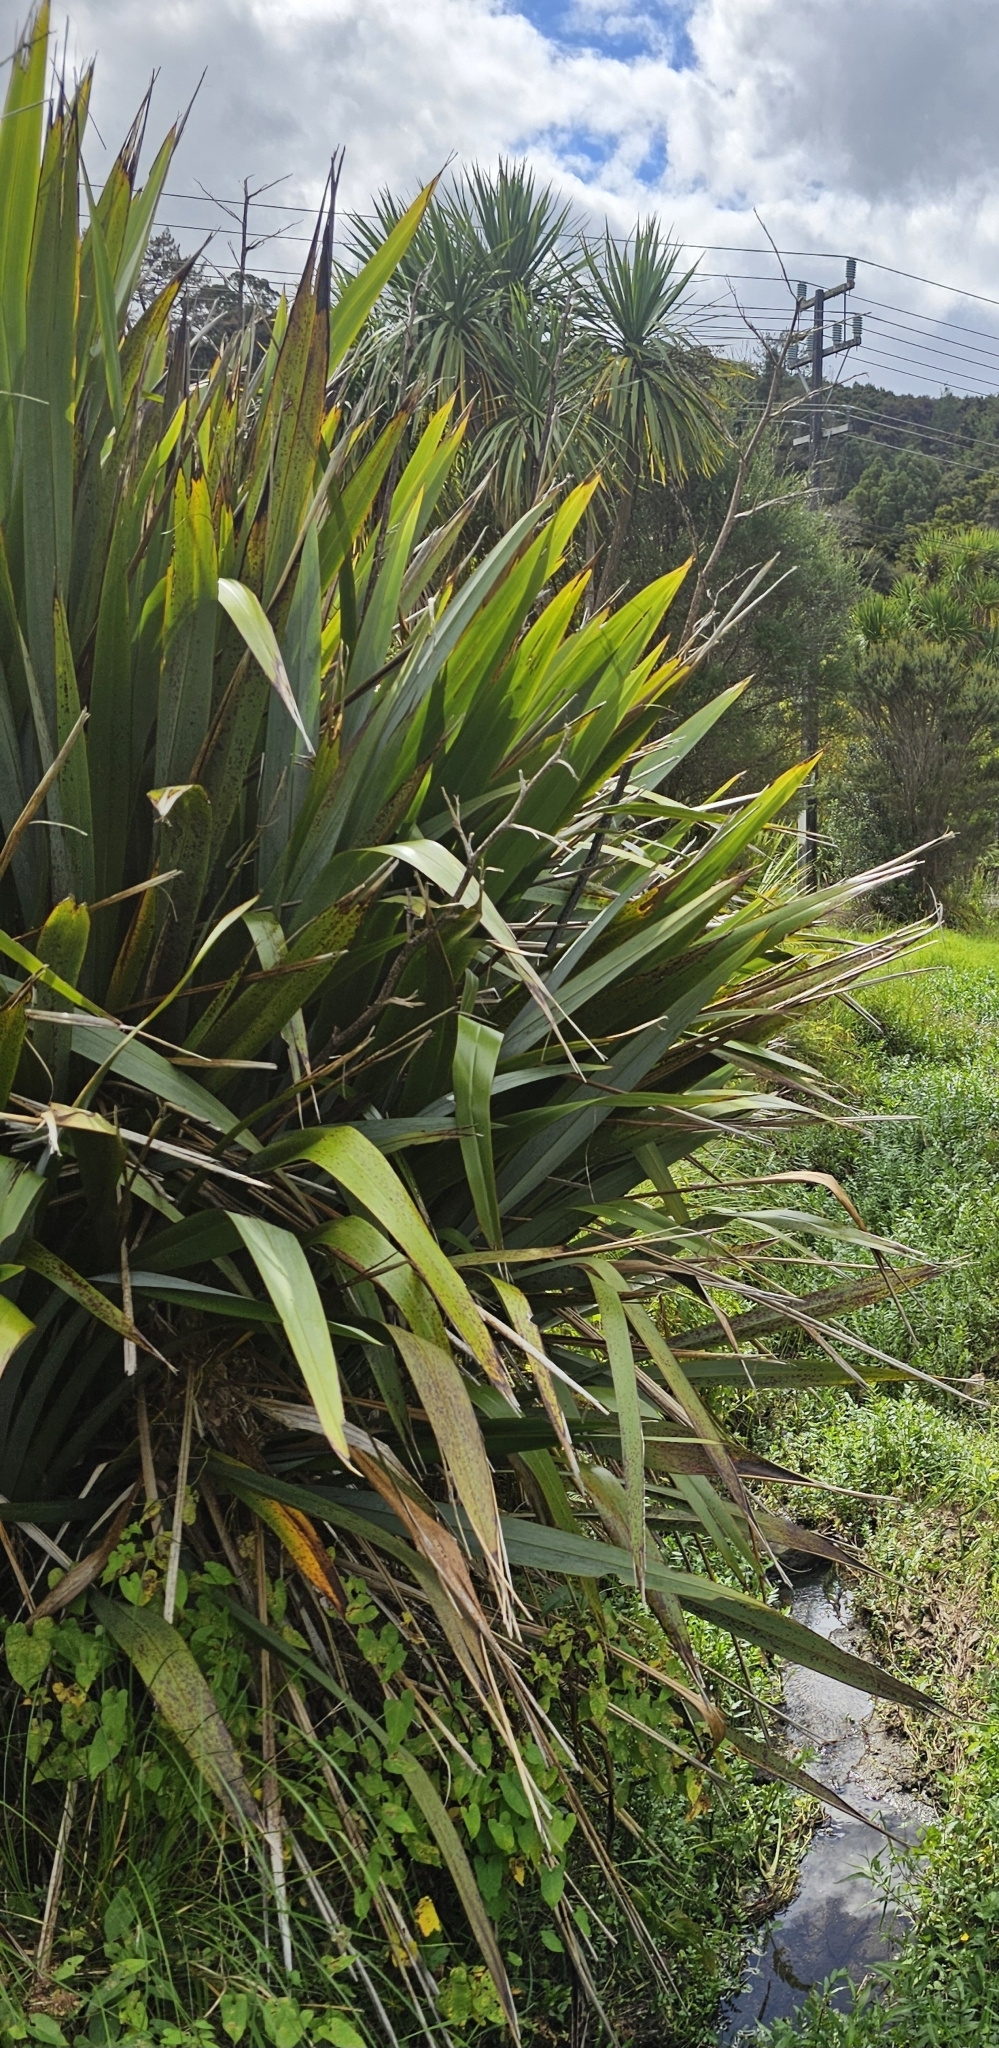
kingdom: Plantae
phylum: Tracheophyta
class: Liliopsida
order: Asparagales
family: Asphodelaceae
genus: Phormium
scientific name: Phormium tenax
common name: New zealand flax
